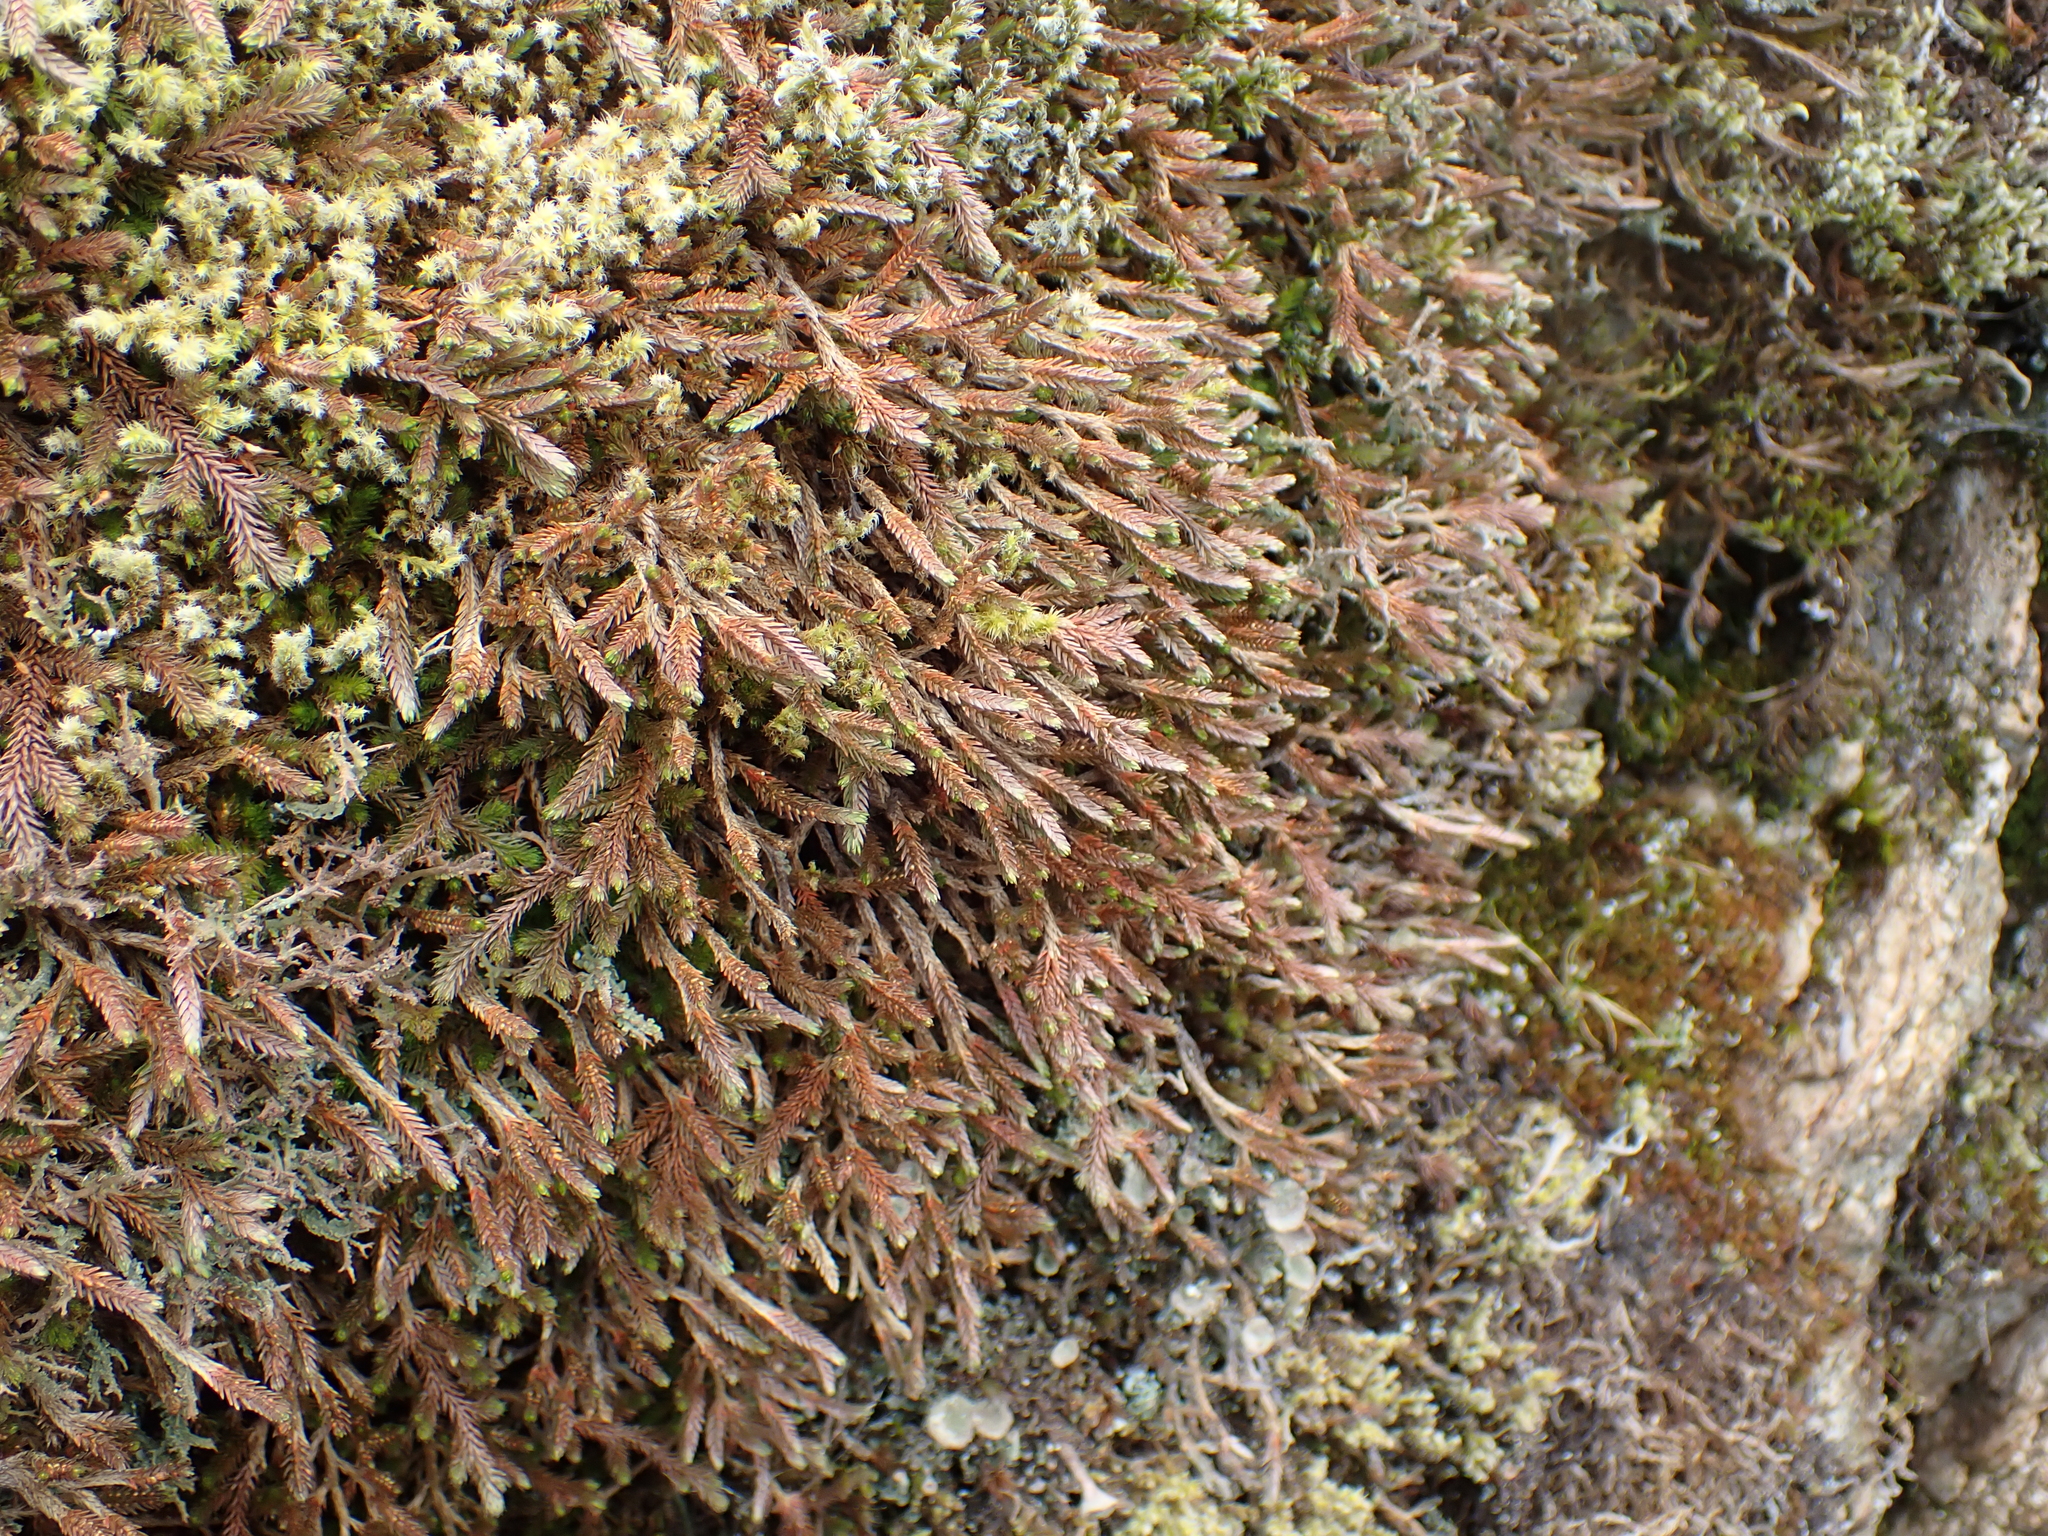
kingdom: Plantae
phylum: Tracheophyta
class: Lycopodiopsida
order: Selaginellales
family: Selaginellaceae
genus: Selaginella
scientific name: Selaginella wallacei
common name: Wallace's selaginella
